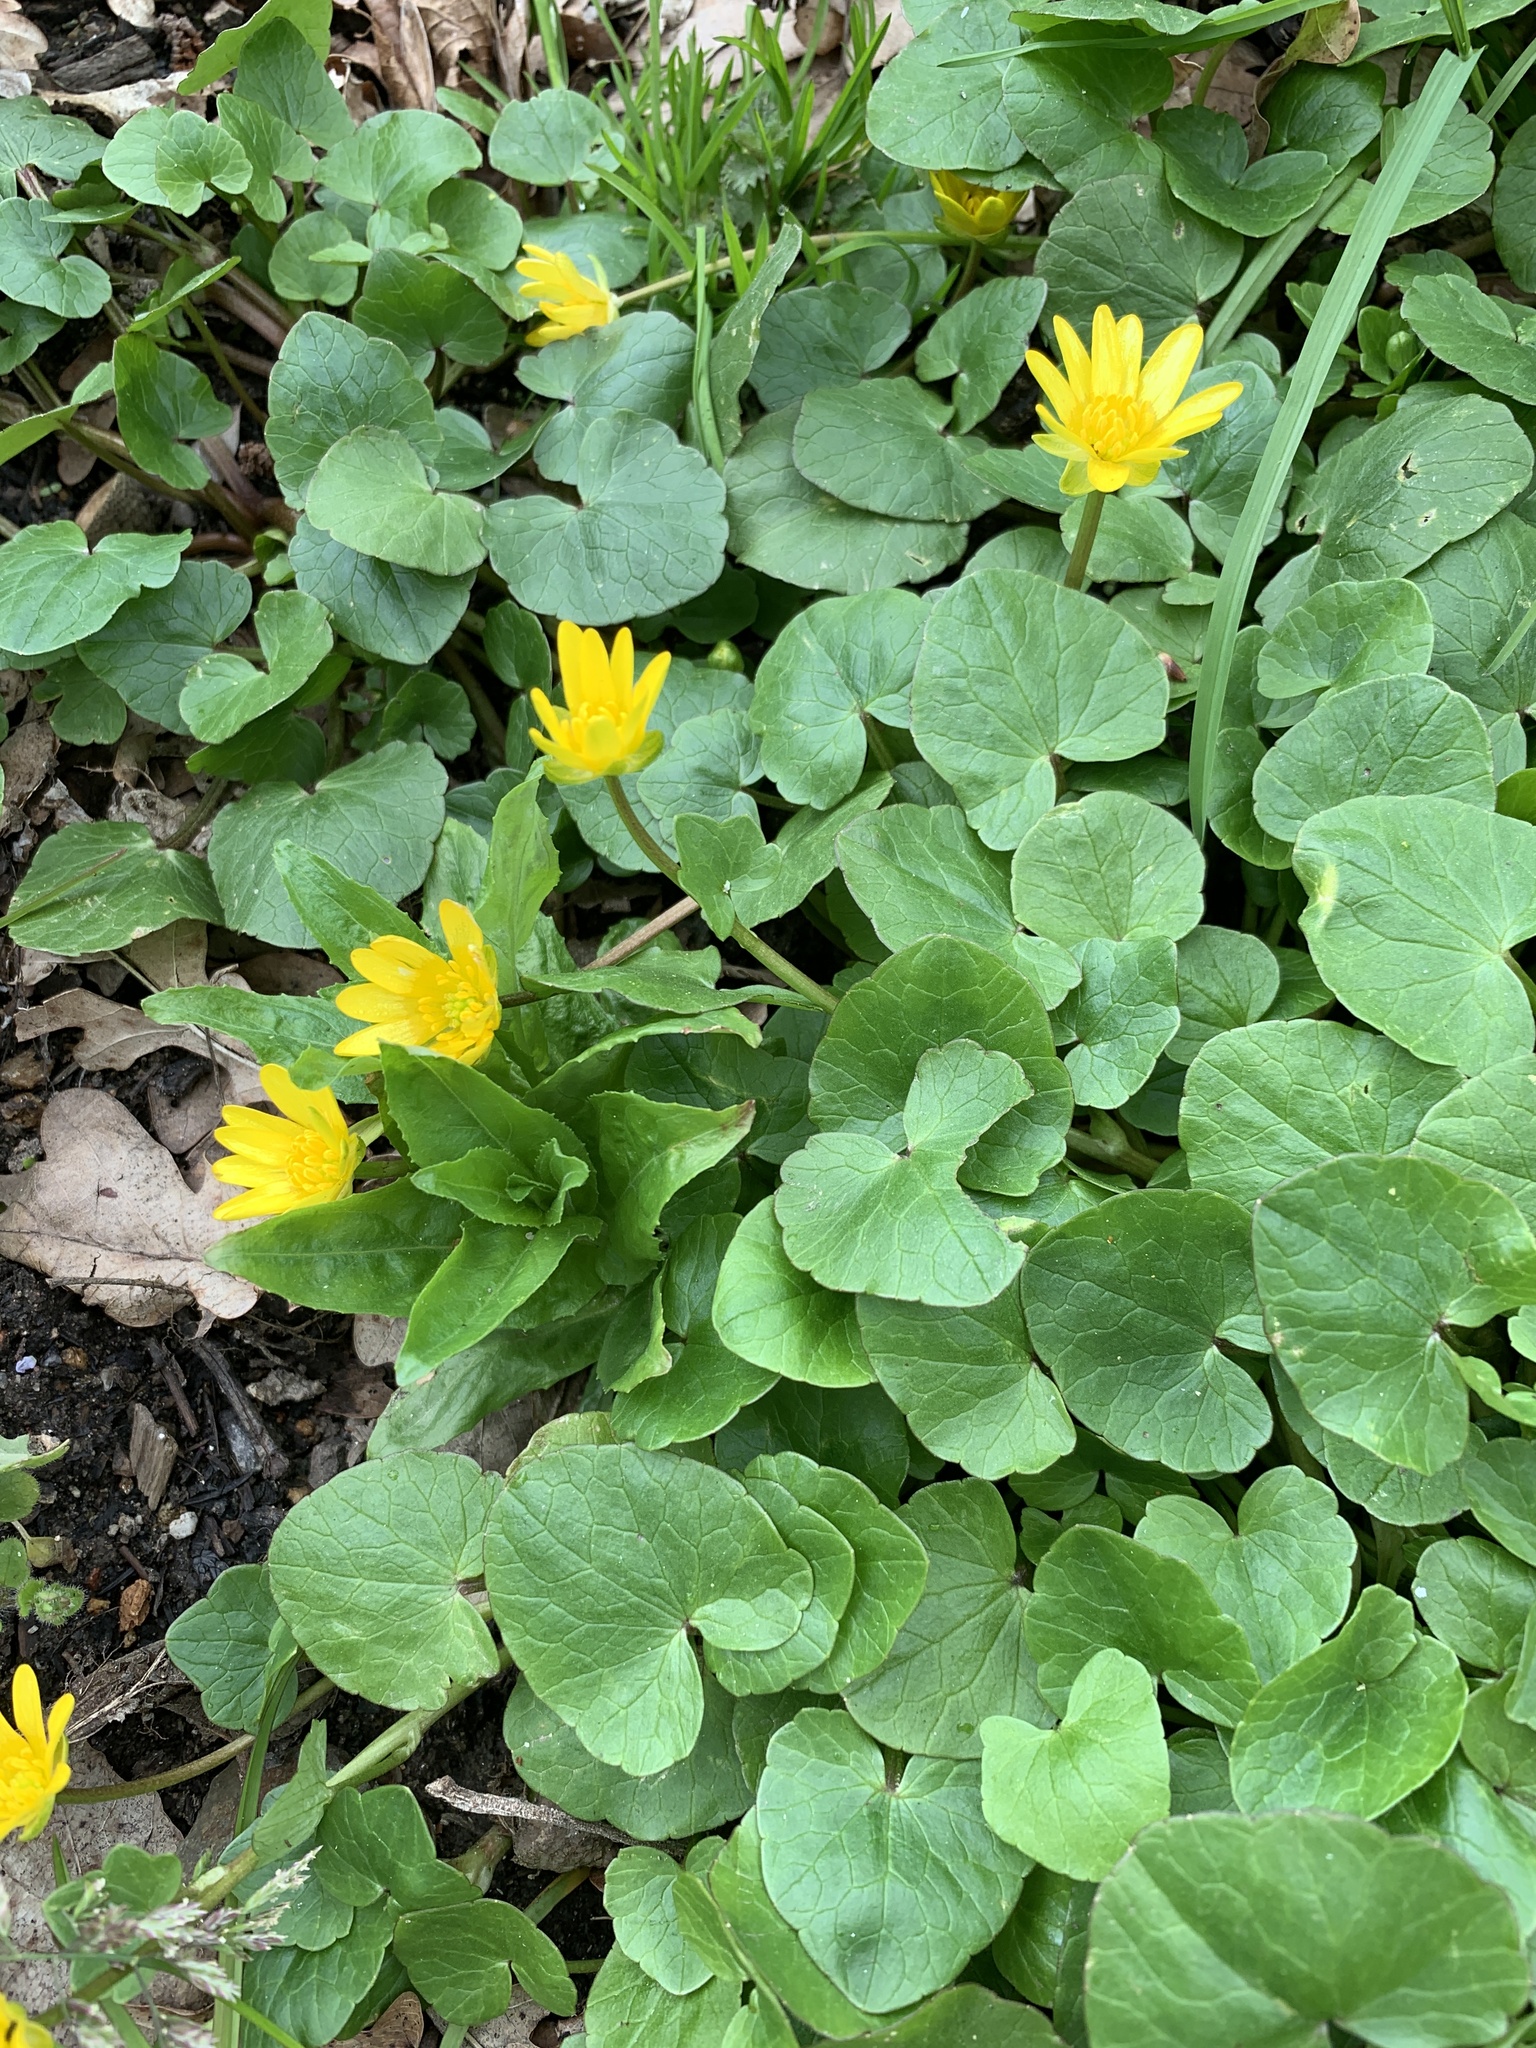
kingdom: Plantae
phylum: Tracheophyta
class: Magnoliopsida
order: Ranunculales
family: Ranunculaceae
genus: Ficaria
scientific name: Ficaria verna
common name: Lesser celandine
